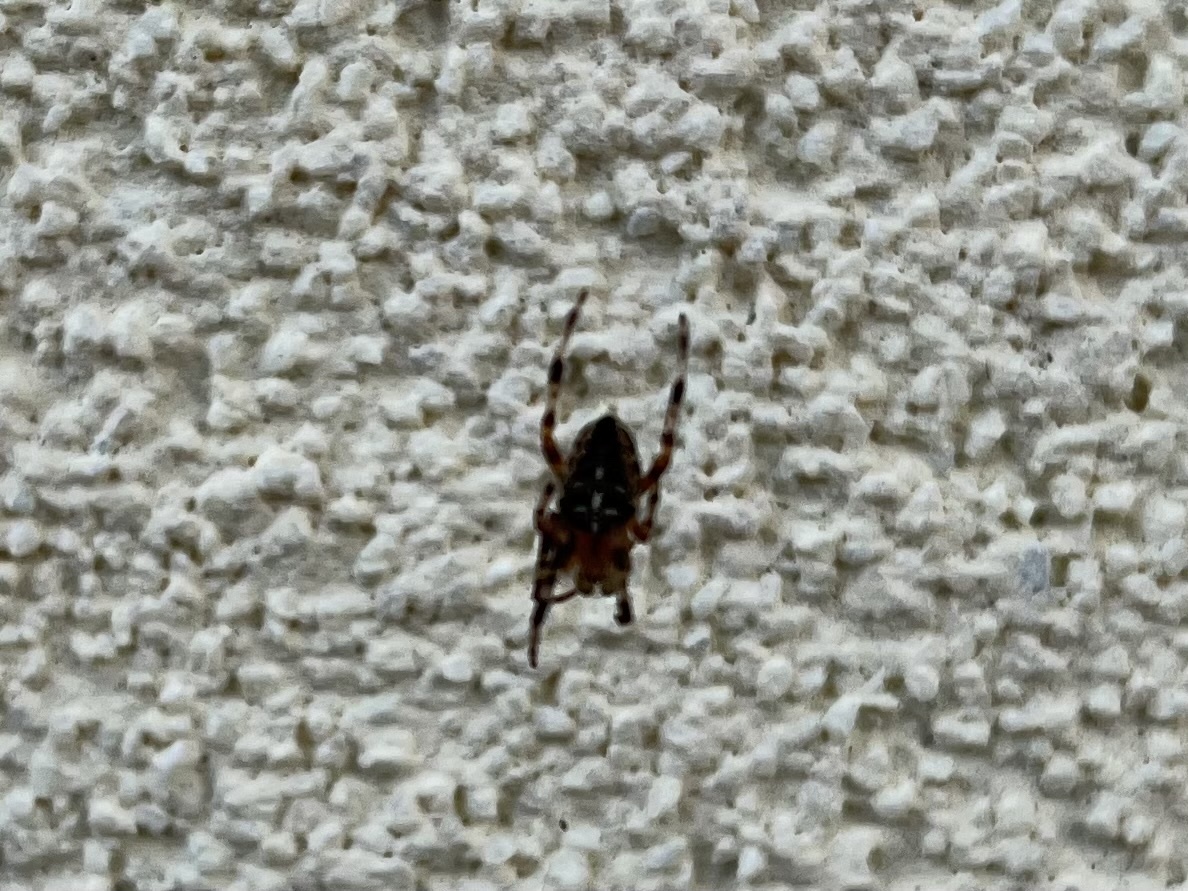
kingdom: Animalia
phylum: Arthropoda
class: Arachnida
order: Araneae
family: Araneidae
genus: Araneus
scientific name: Araneus diadematus
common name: Cross orbweaver
